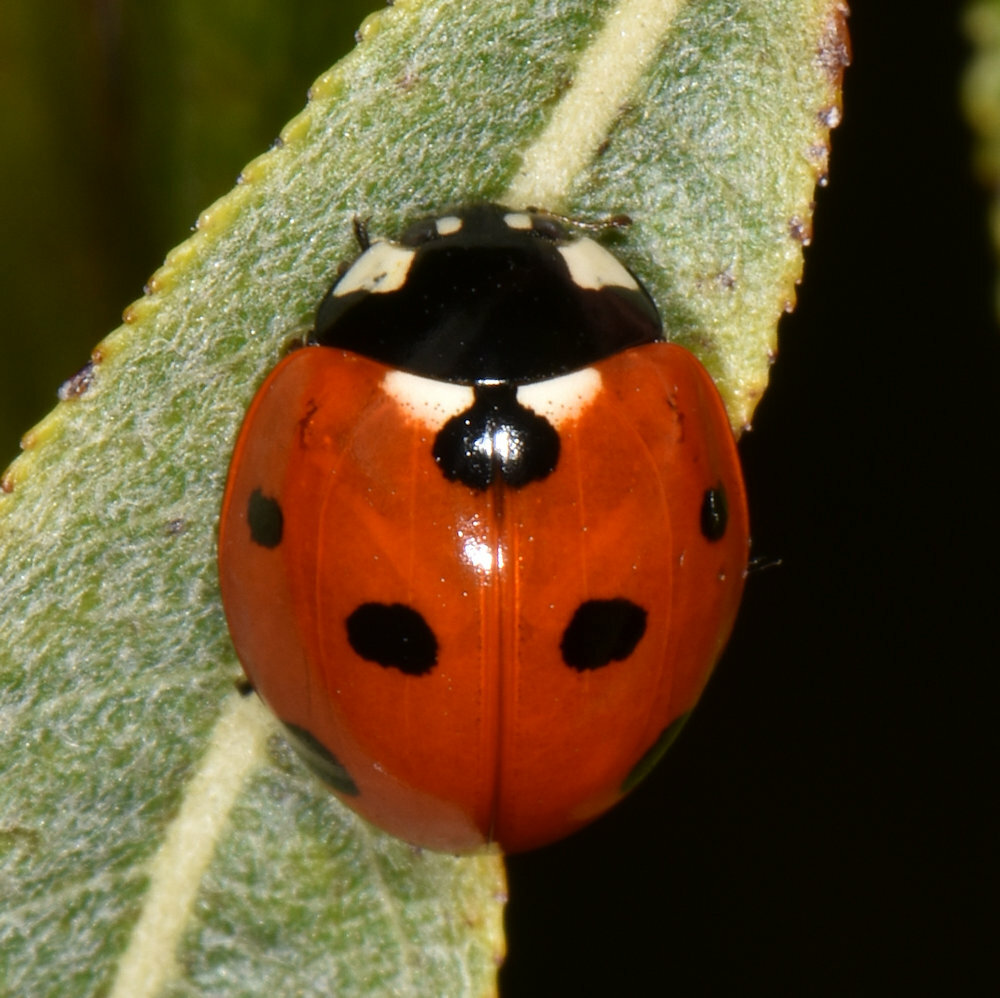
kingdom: Animalia
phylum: Arthropoda
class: Insecta
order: Coleoptera
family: Coccinellidae
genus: Coccinella
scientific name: Coccinella septempunctata
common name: Sevenspotted lady beetle
